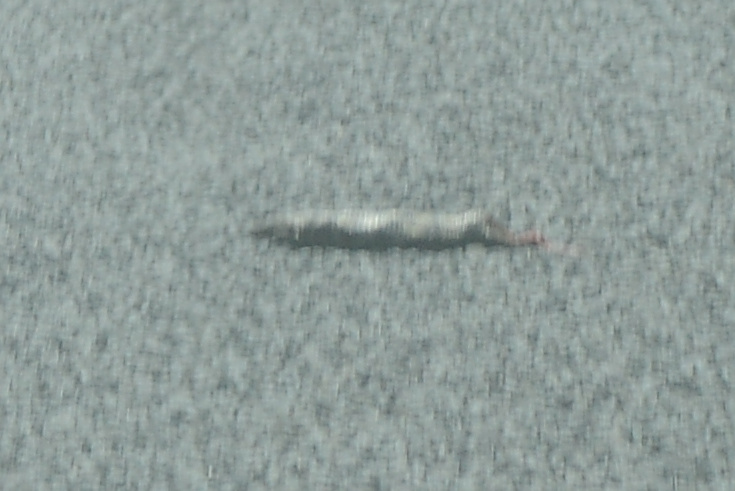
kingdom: Animalia
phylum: Chordata
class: Squamata
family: Scincidae
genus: Tiliqua
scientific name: Tiliqua nigrolutea
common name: Blotched blue-tongued lizard
